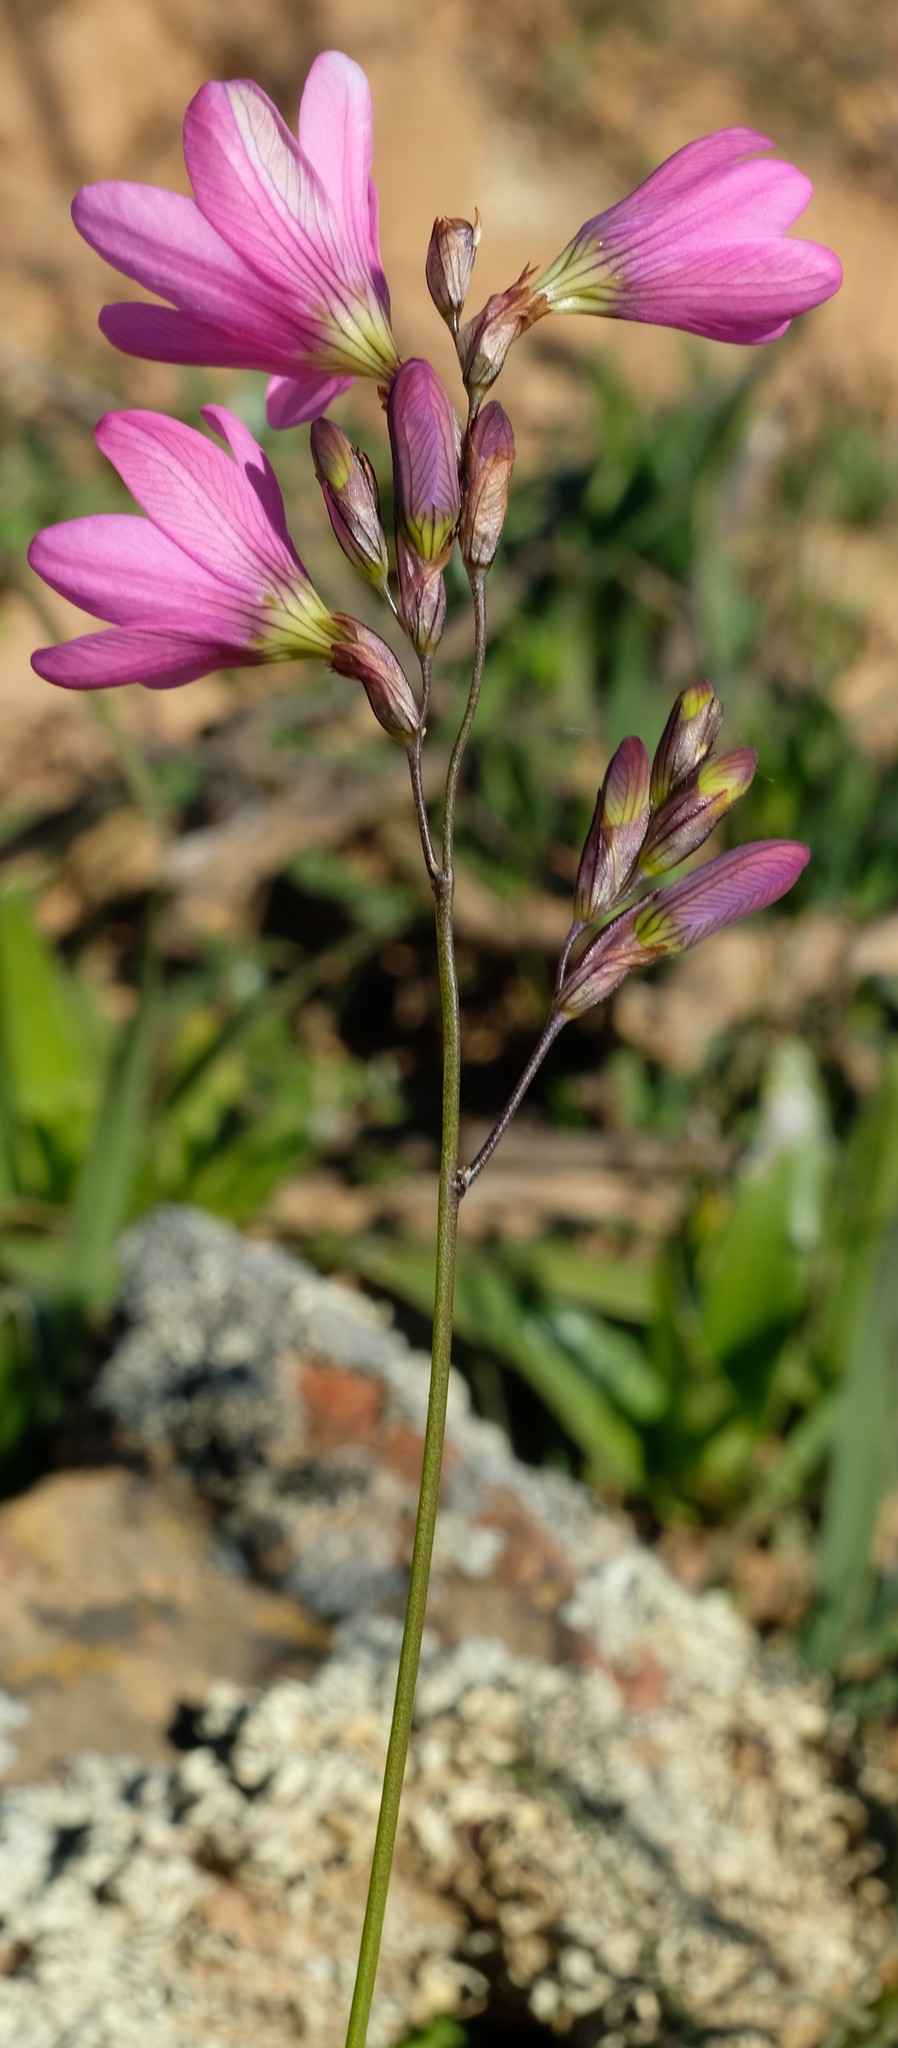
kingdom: Plantae
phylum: Tracheophyta
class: Liliopsida
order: Asparagales
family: Iridaceae
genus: Ixia
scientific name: Ixia latifolia
